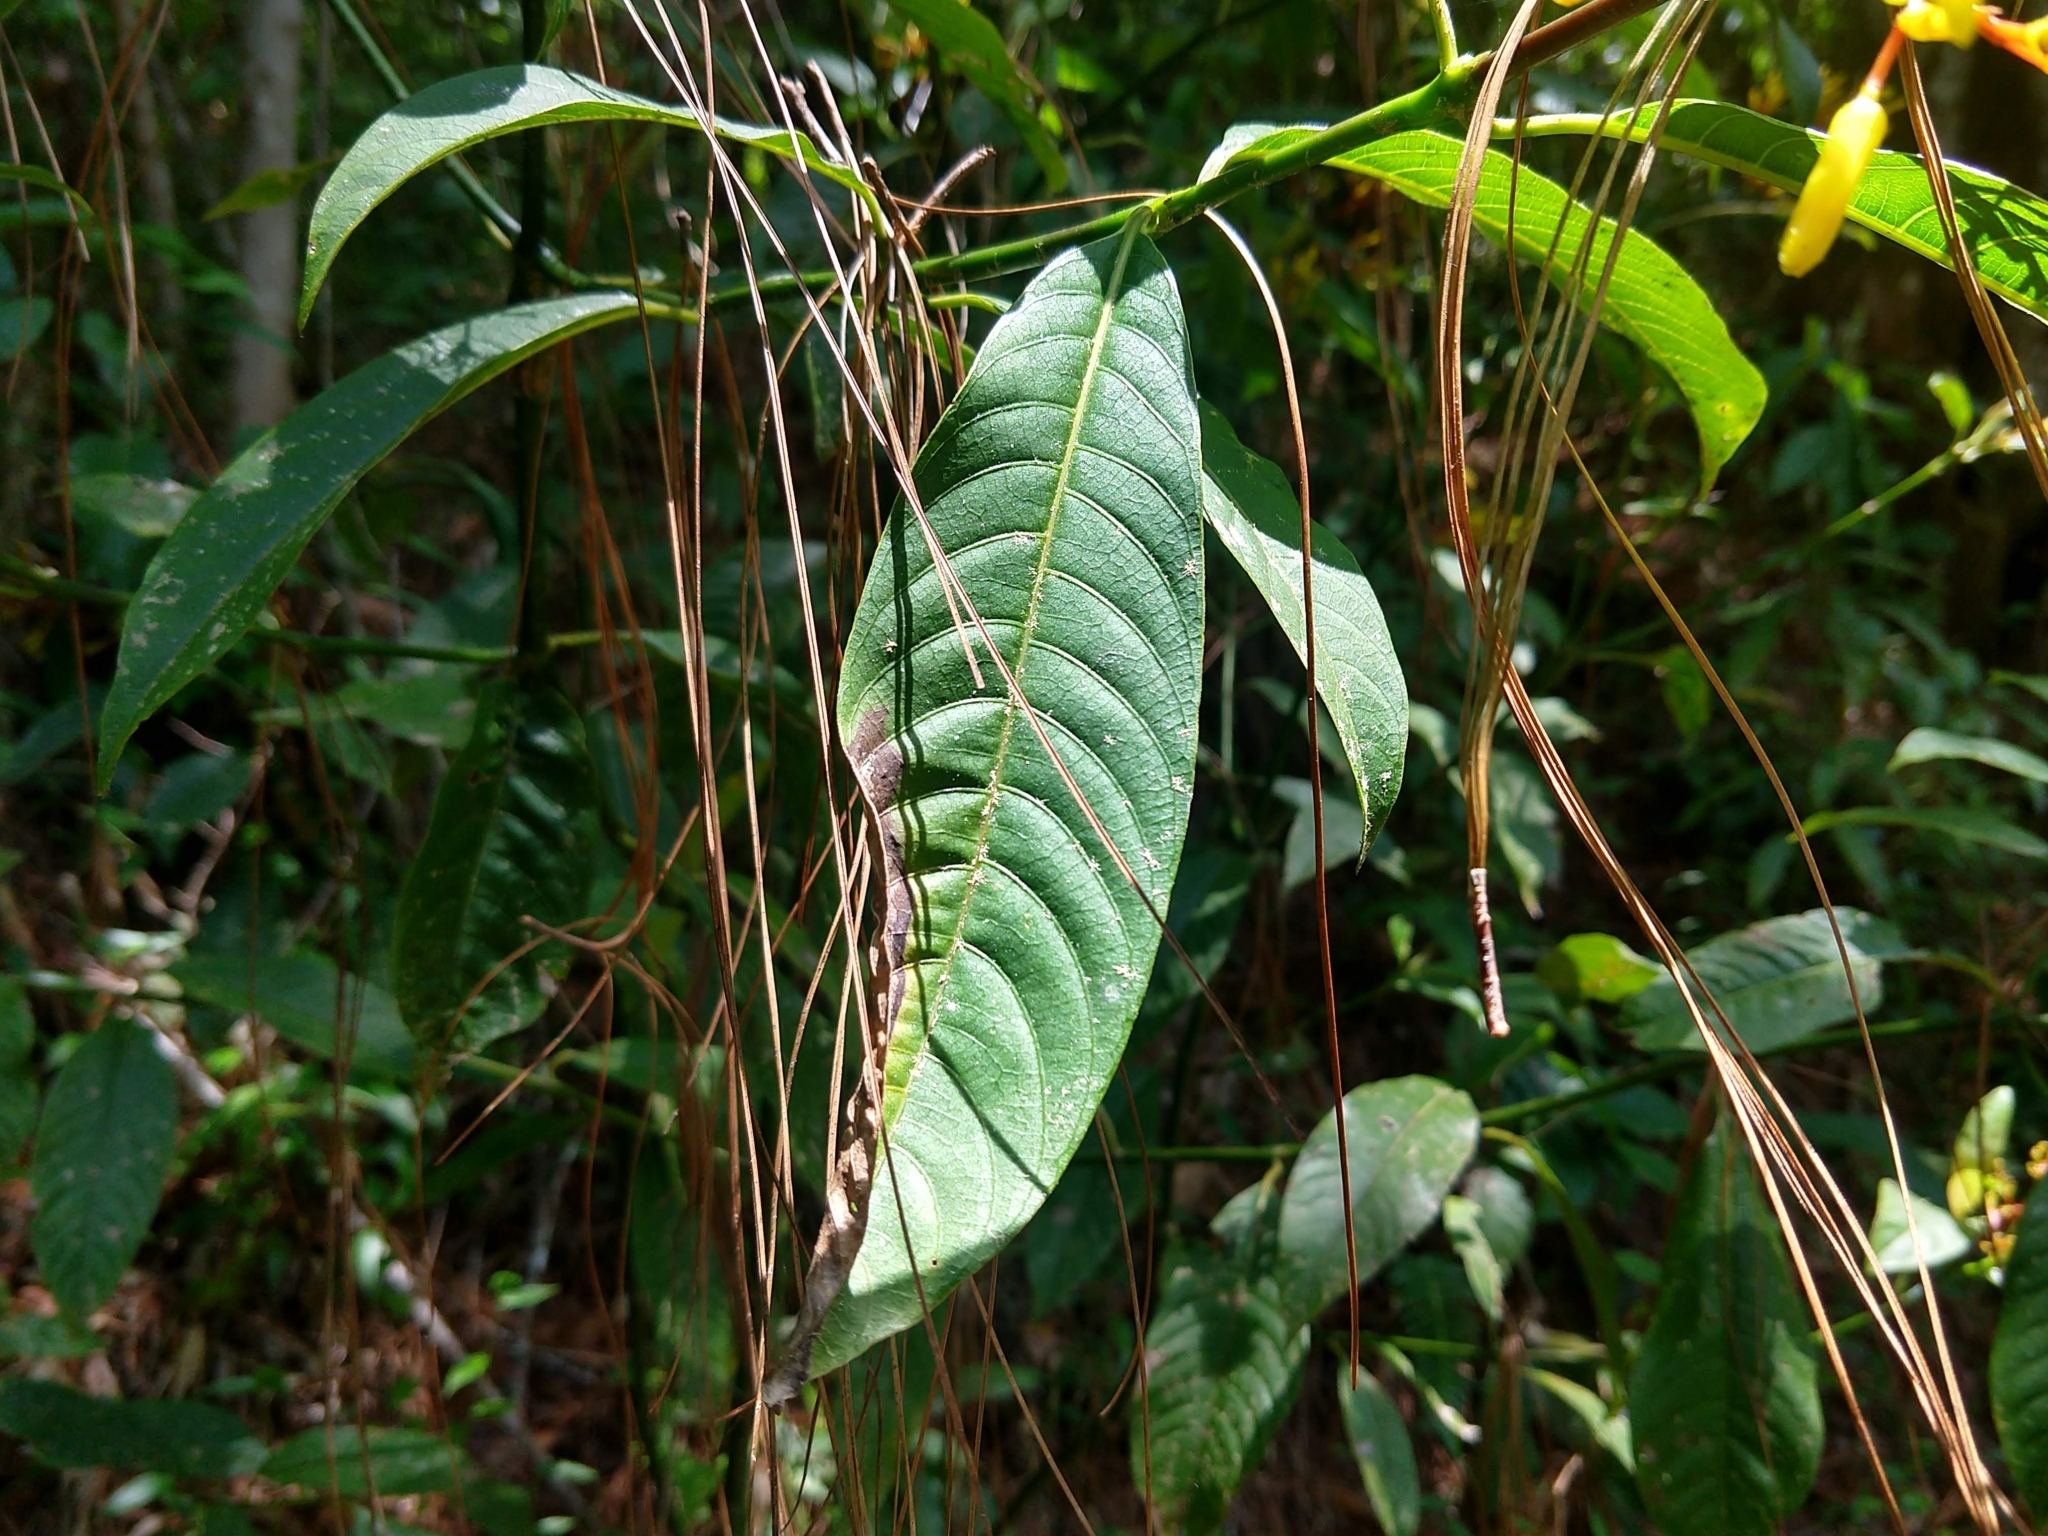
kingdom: Plantae
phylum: Tracheophyta
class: Magnoliopsida
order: Gentianales
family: Rubiaceae
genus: Palicourea
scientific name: Palicourea padifolia
